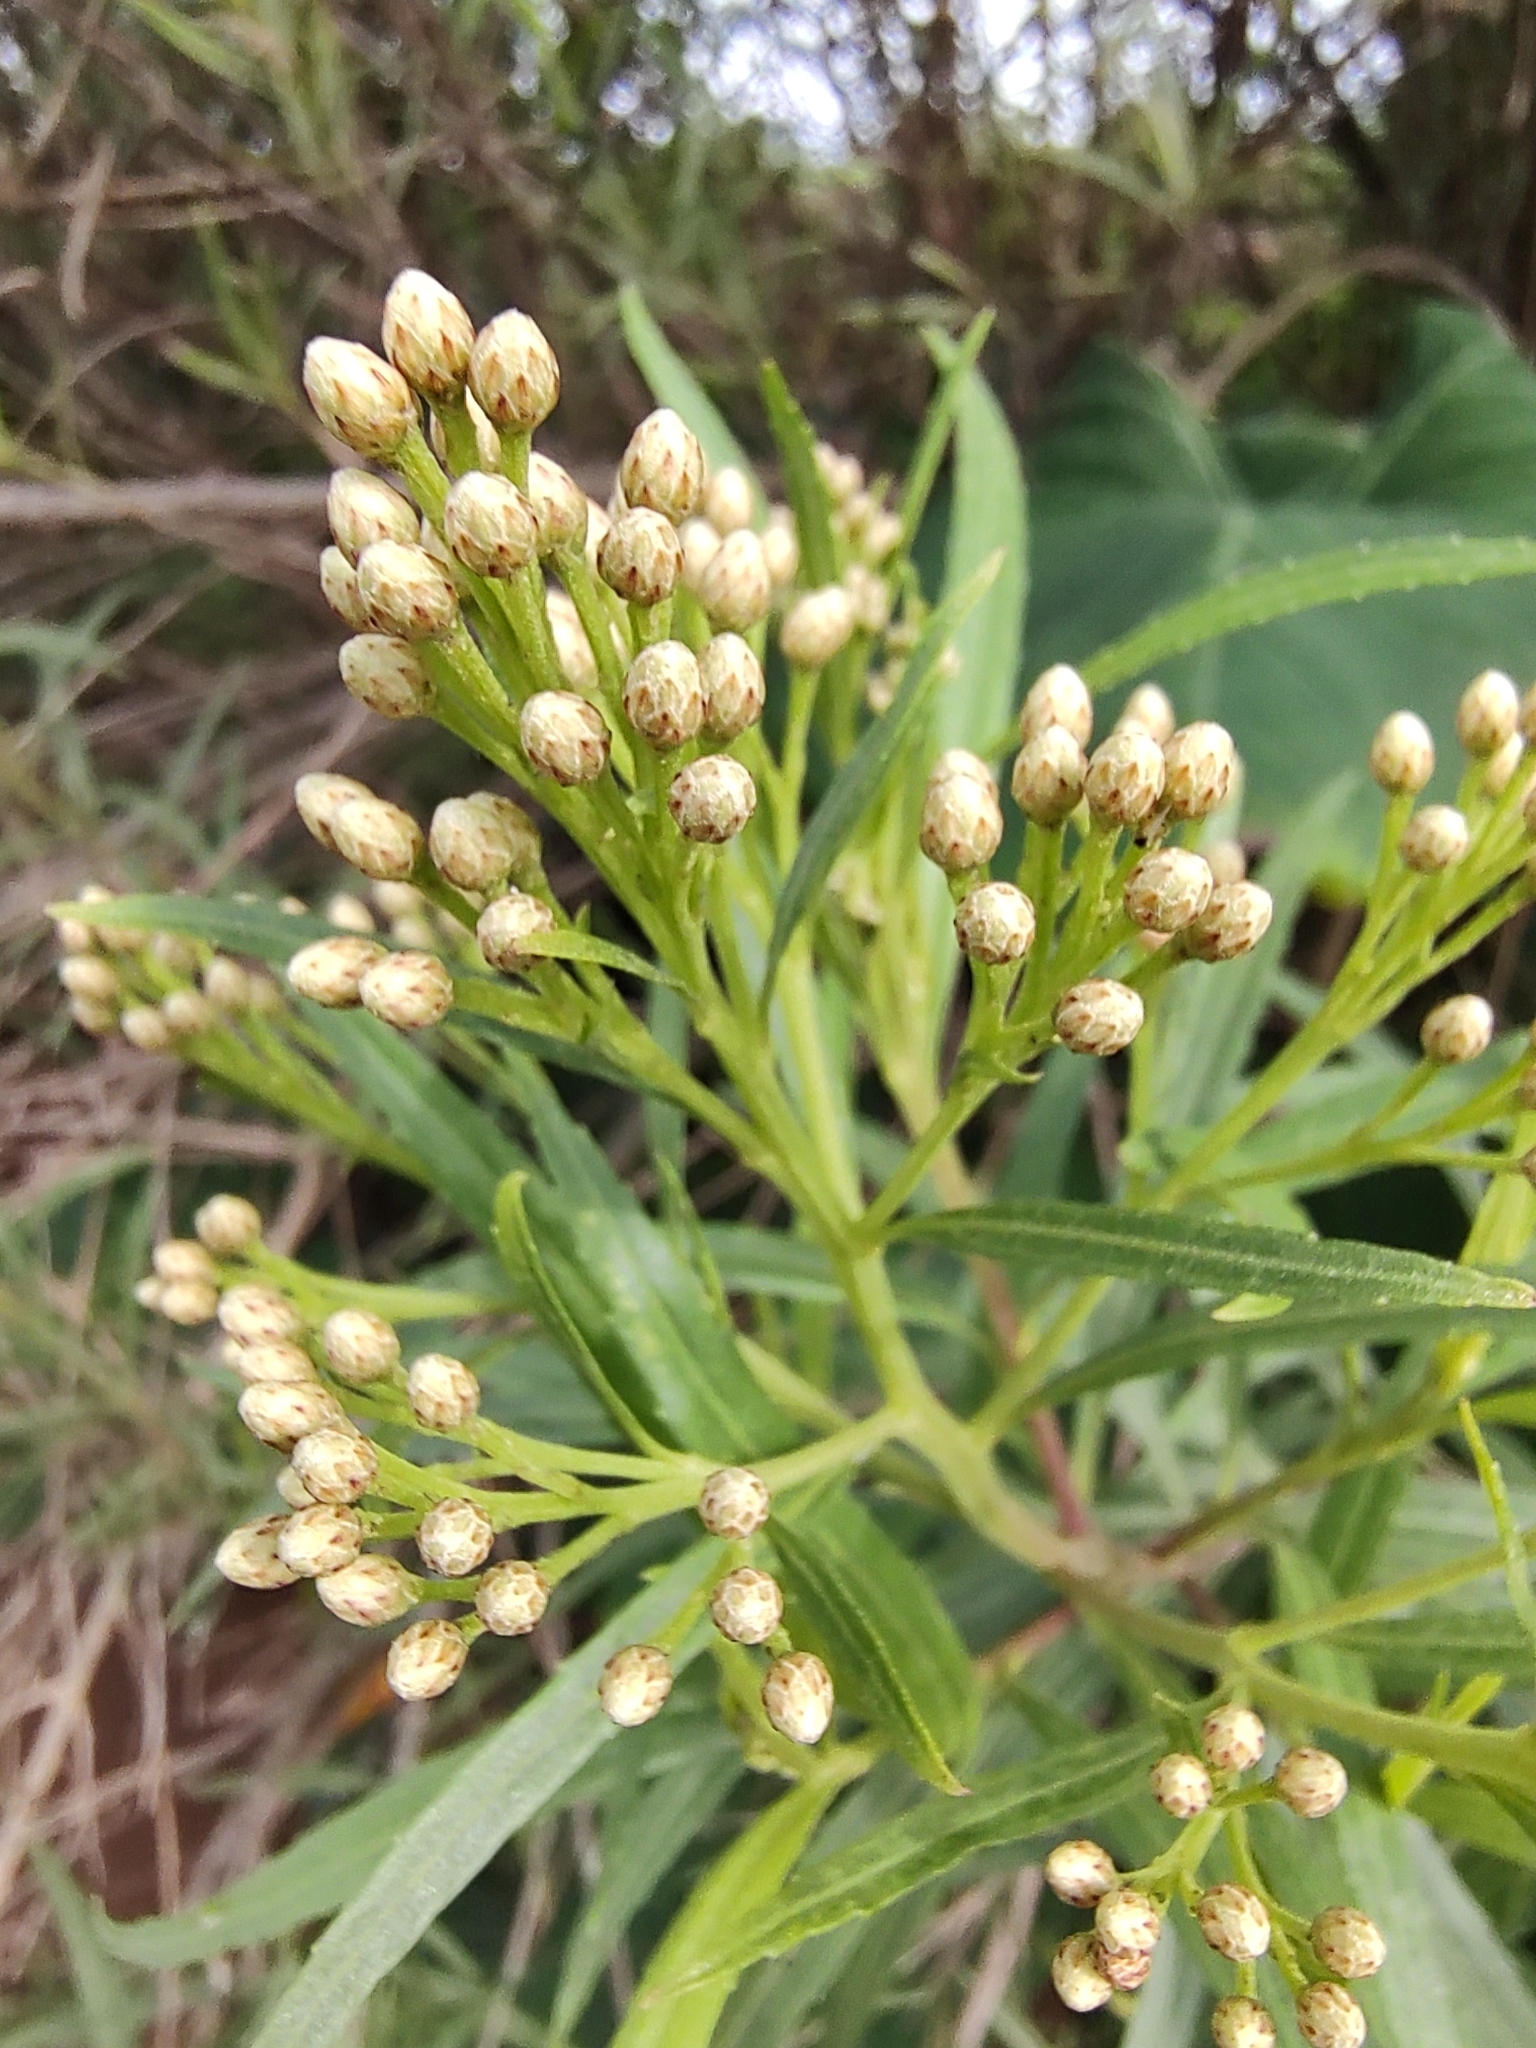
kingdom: Plantae
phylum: Tracheophyta
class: Magnoliopsida
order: Asterales
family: Asteraceae
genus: Baccharis
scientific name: Baccharis salicifolia
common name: Sticky baccharis
